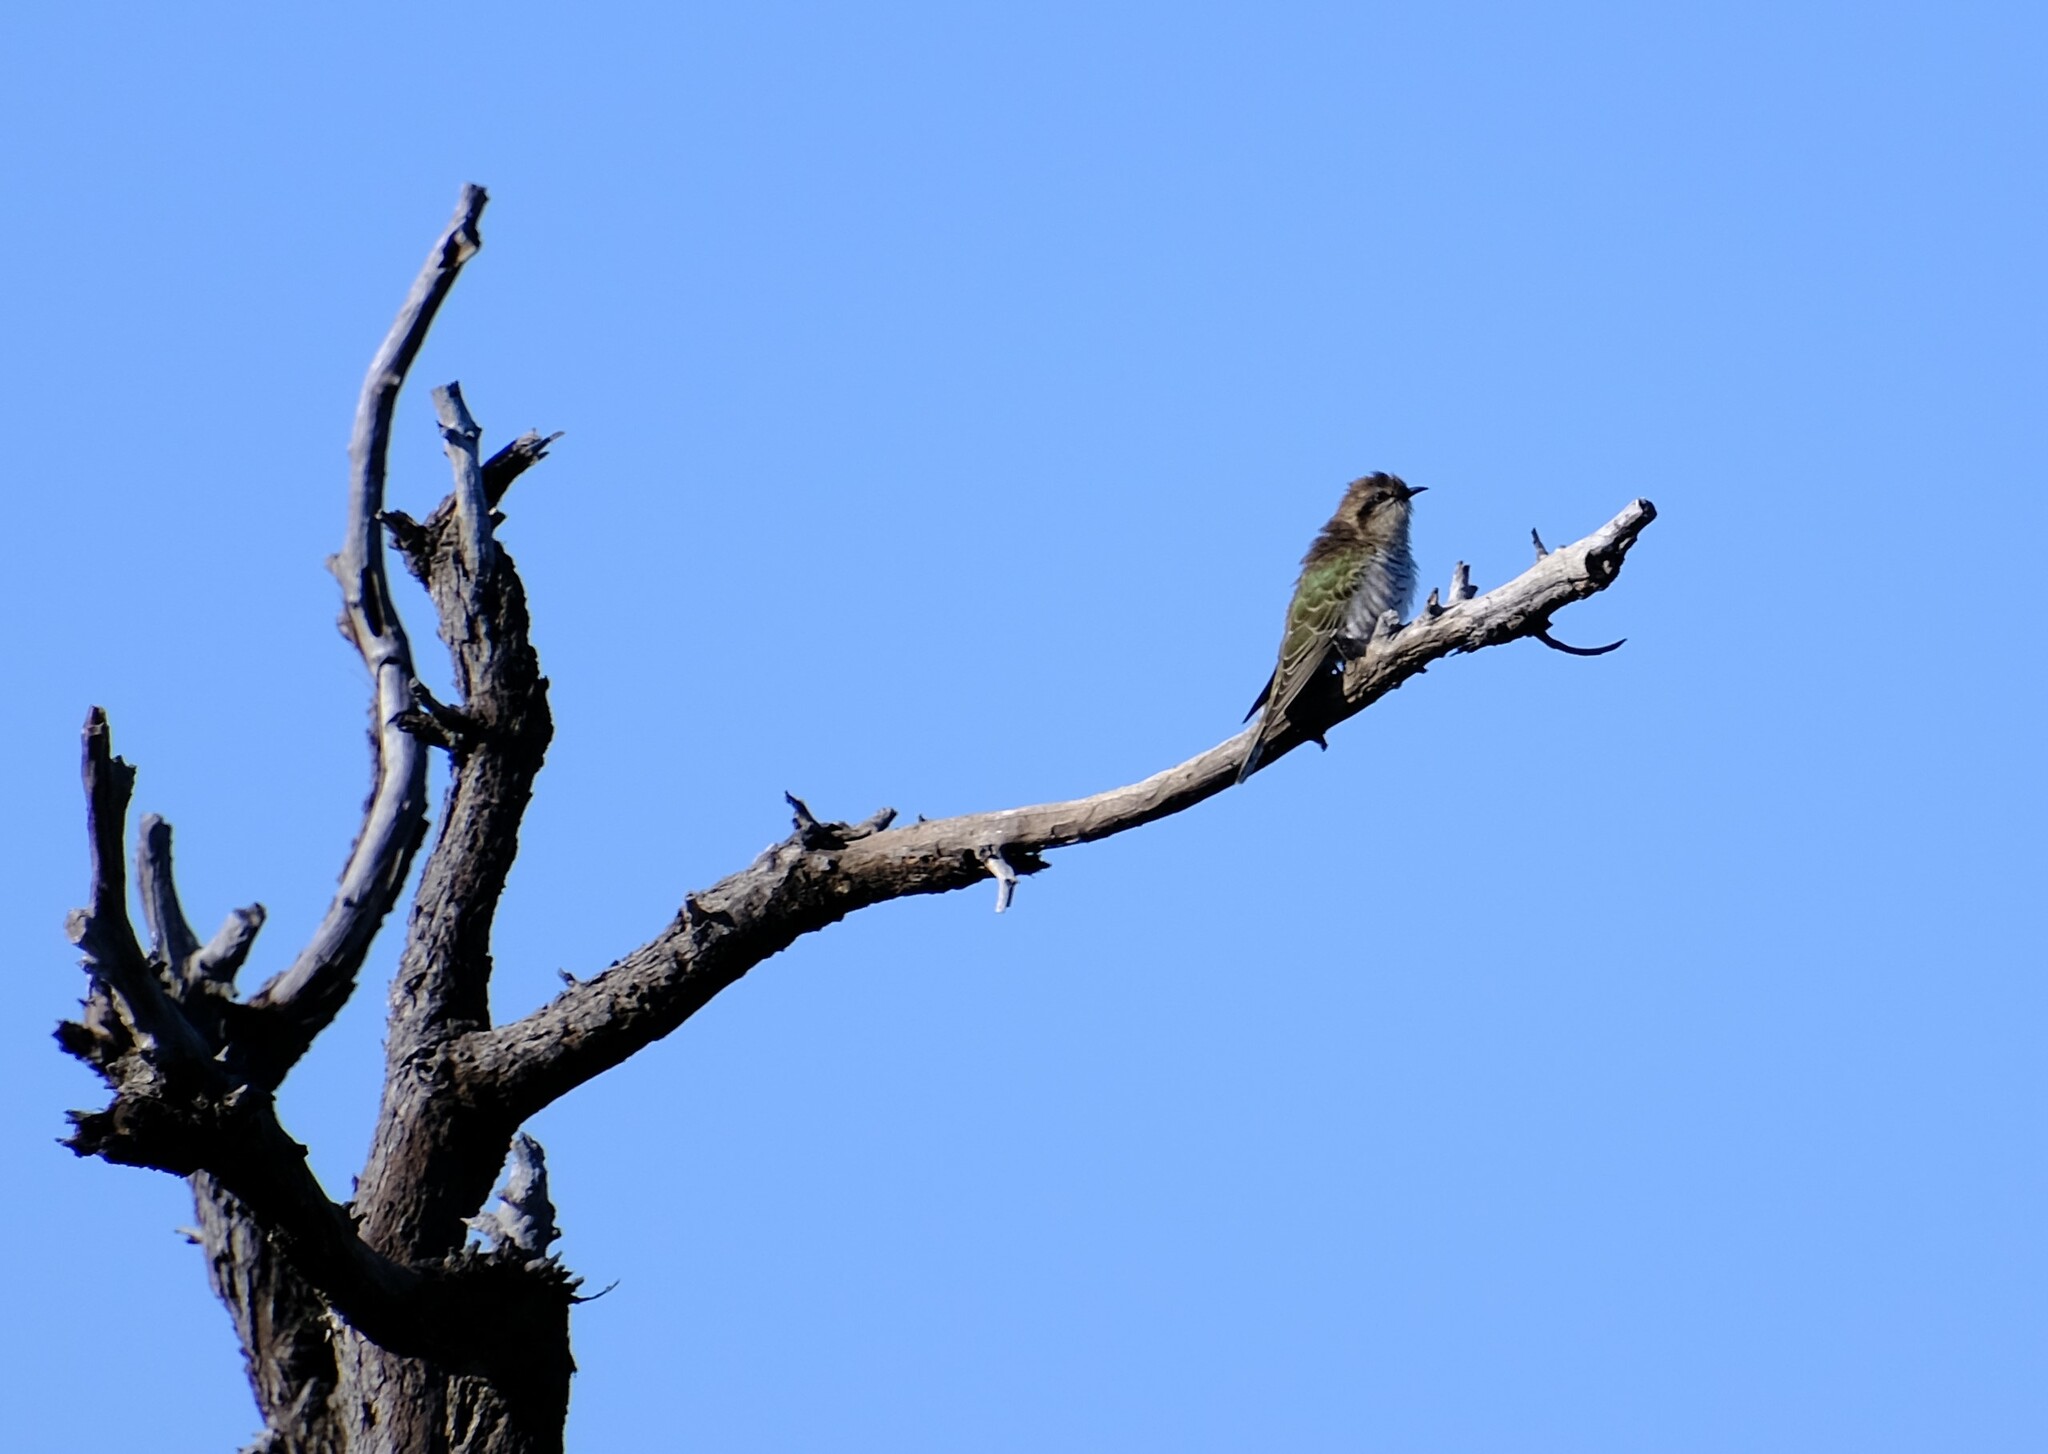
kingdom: Animalia
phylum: Chordata
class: Aves
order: Cuculiformes
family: Cuculidae
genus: Chrysococcyx
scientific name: Chrysococcyx basalis
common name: Horsfield's bronze cuckoo
